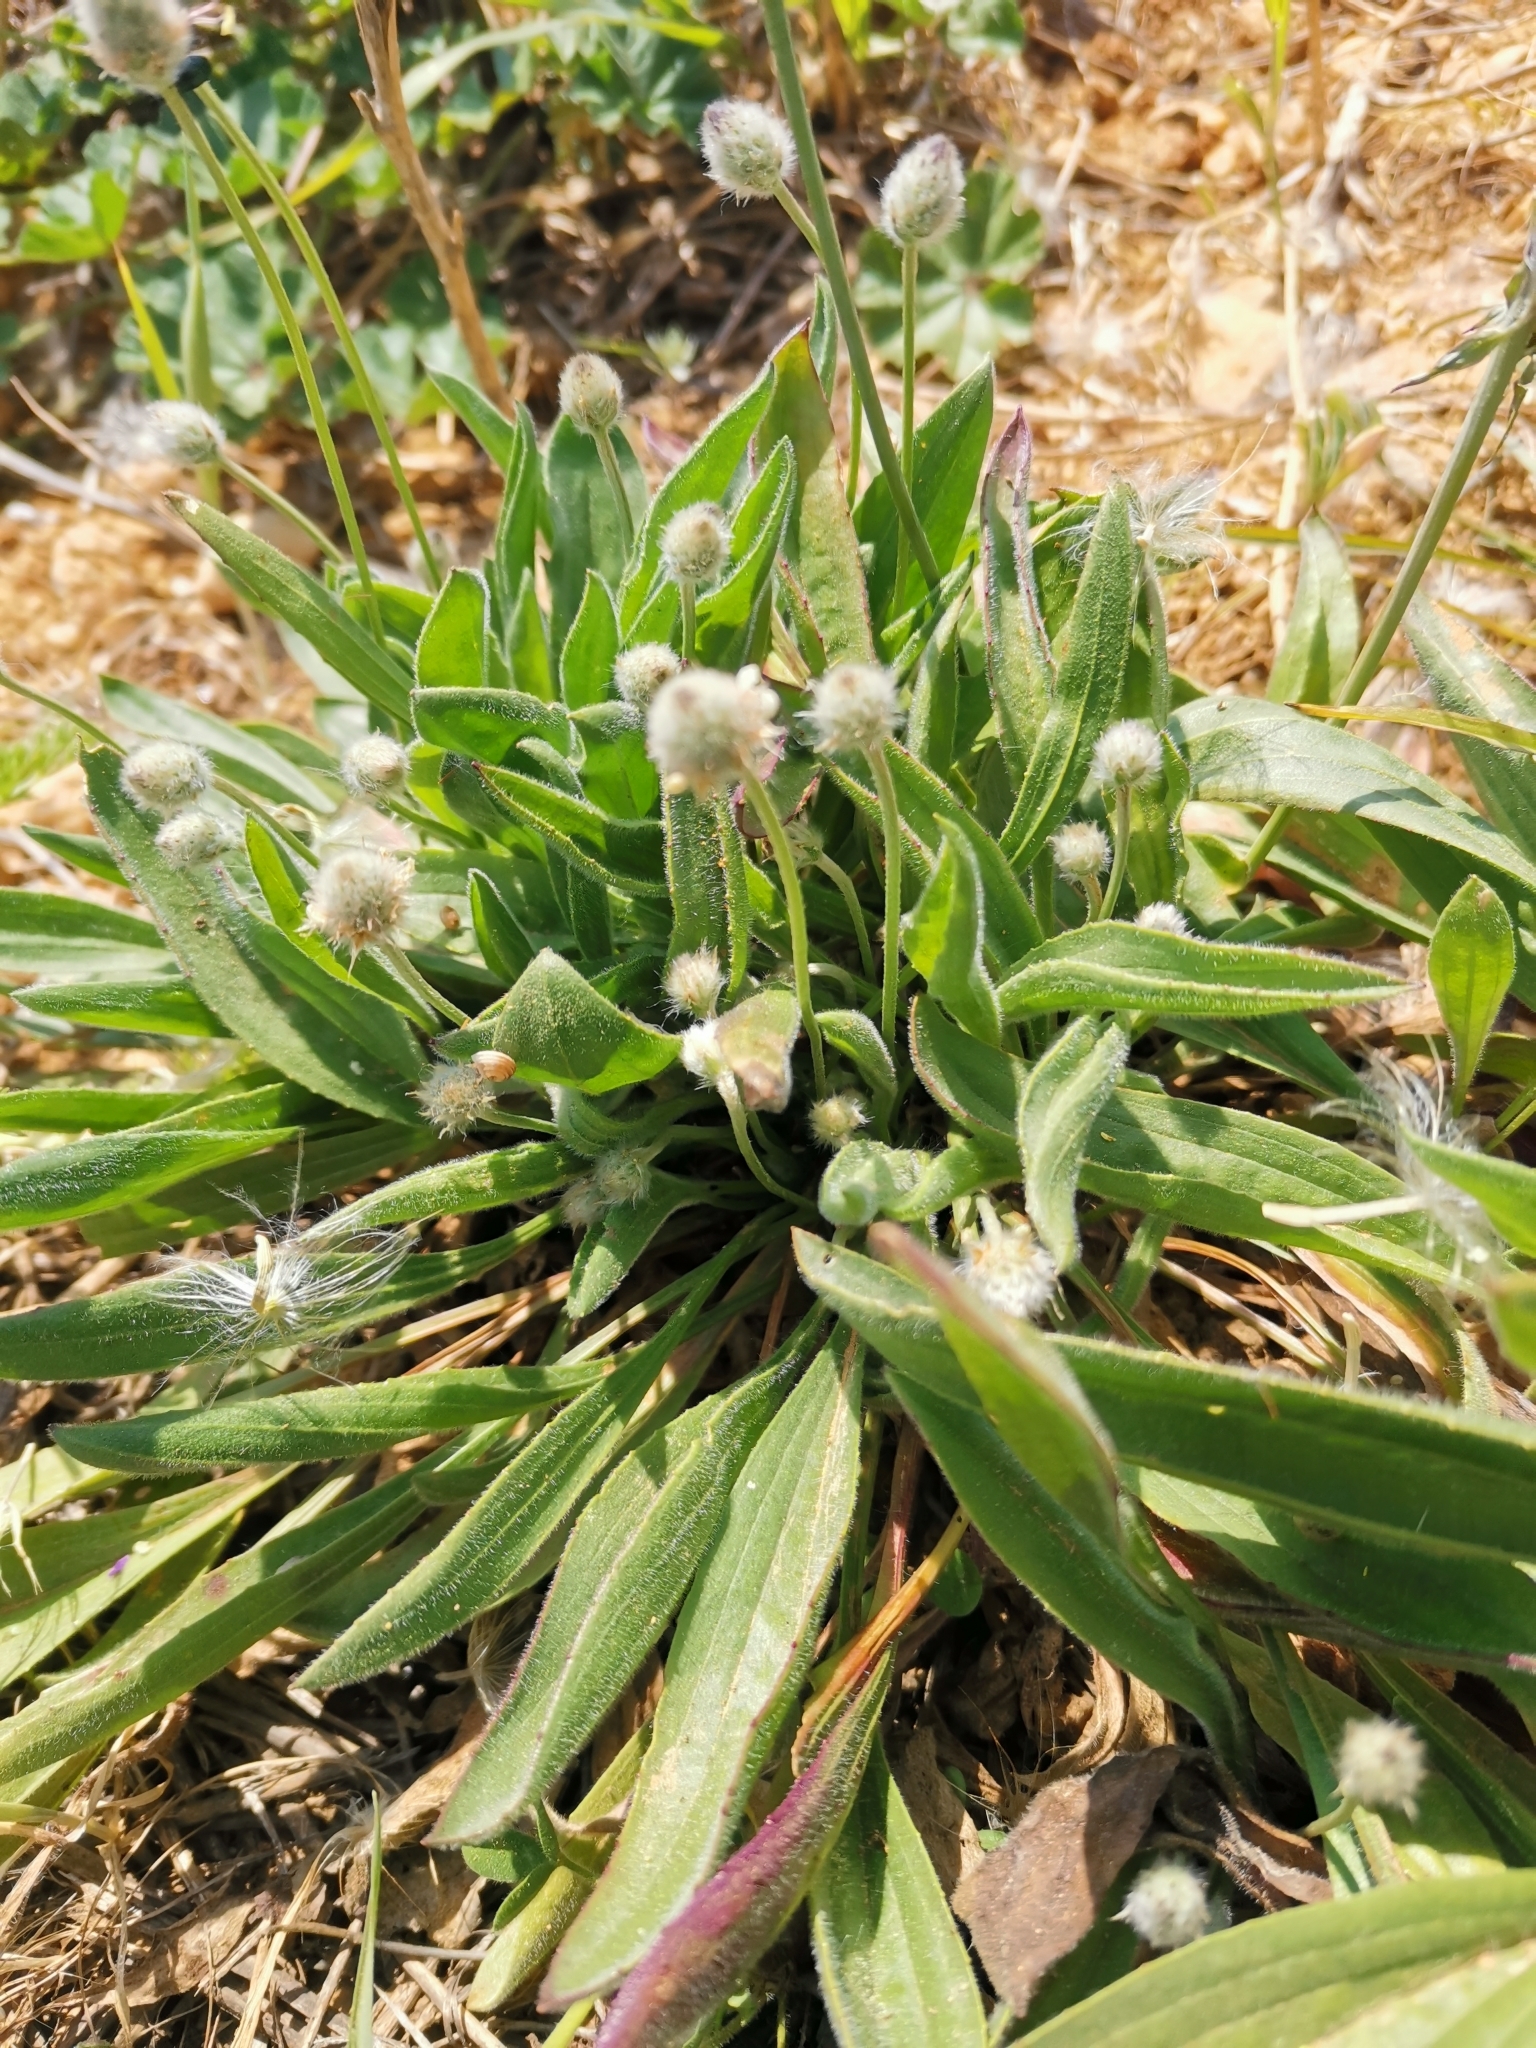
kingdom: Plantae
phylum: Tracheophyta
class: Magnoliopsida
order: Lamiales
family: Plantaginaceae
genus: Plantago
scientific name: Plantago lagopus
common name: Hare-foot plantain
